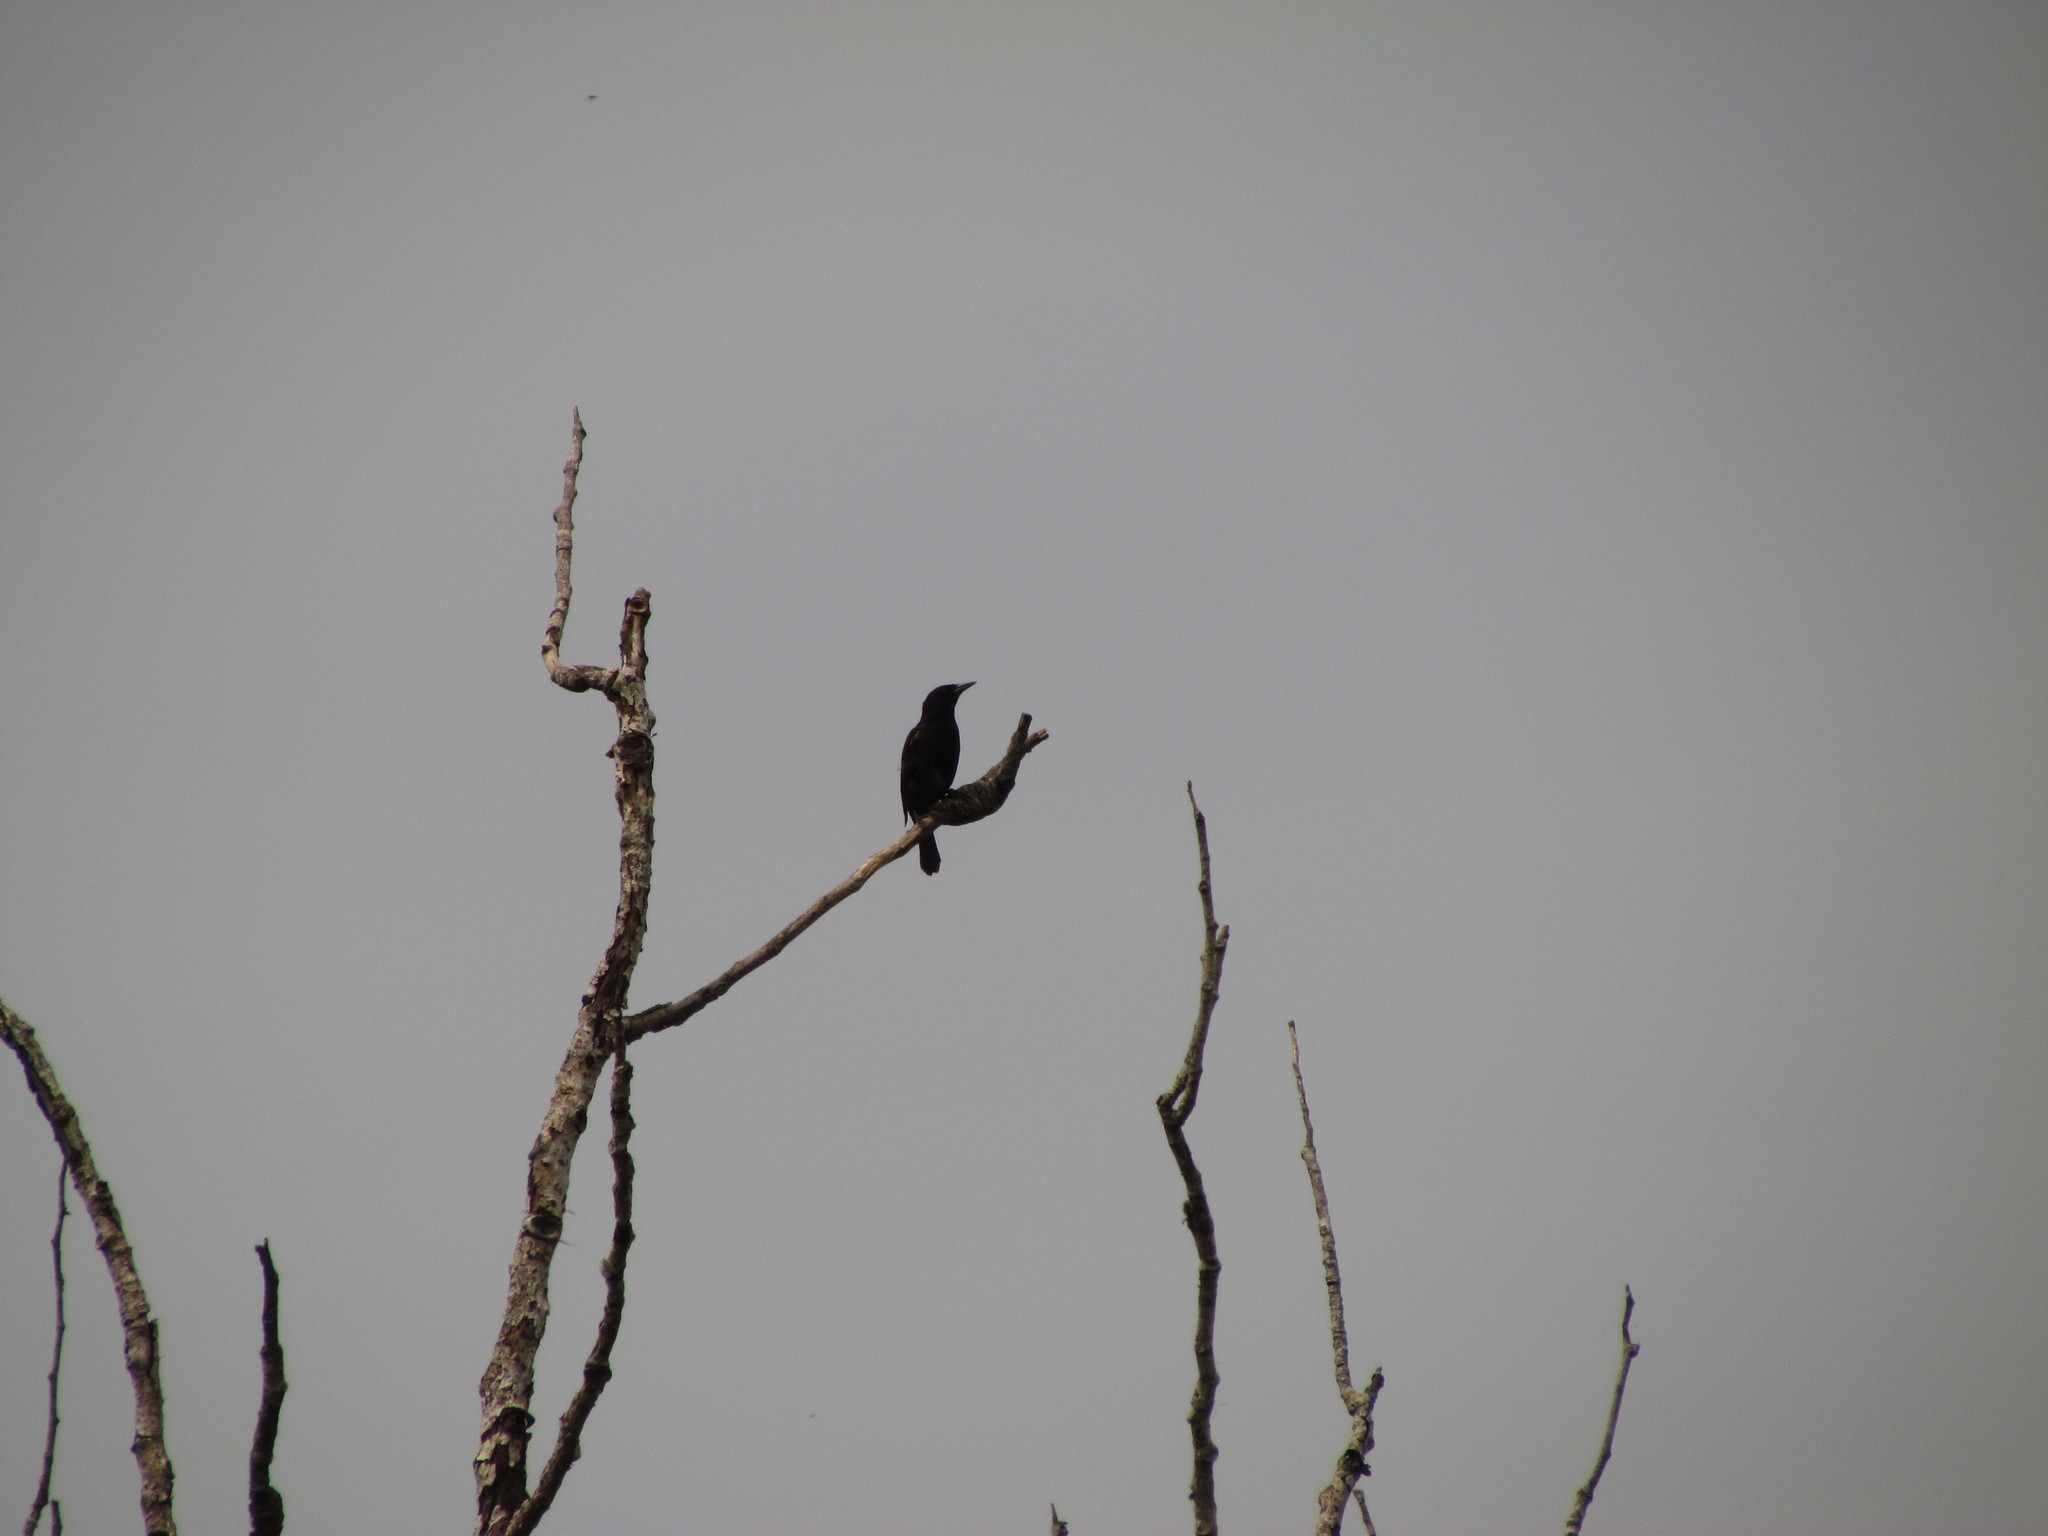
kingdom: Animalia
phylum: Chordata
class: Aves
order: Passeriformes
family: Icteridae
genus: Agelasticus
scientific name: Agelasticus thilius
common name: Yellow-winged blackbird
